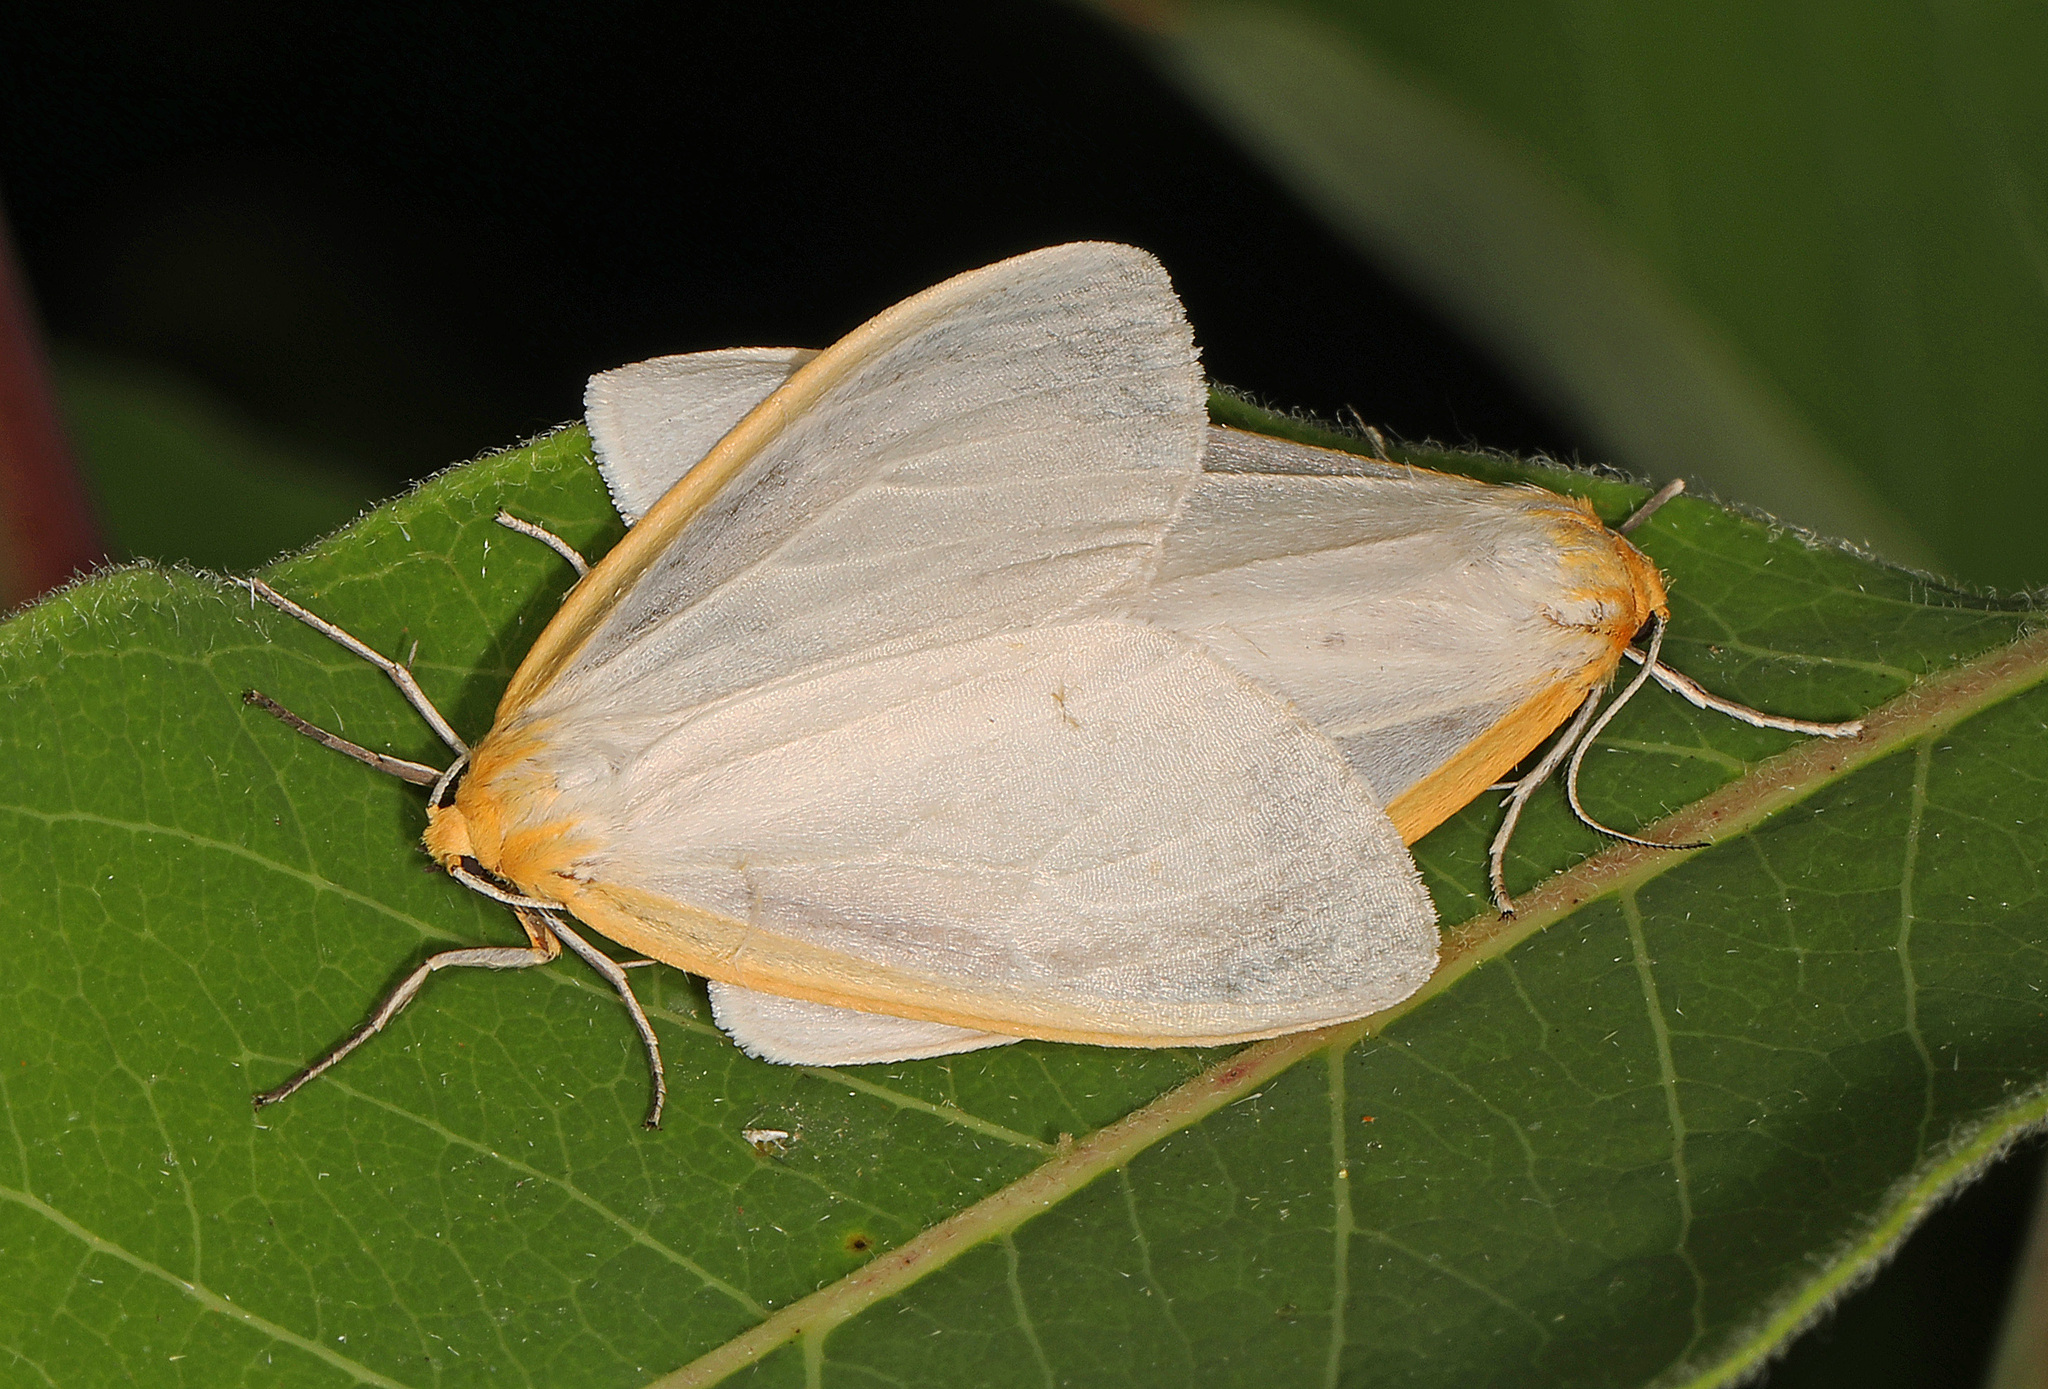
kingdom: Animalia
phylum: Arthropoda
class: Insecta
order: Lepidoptera
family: Erebidae
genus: Cycnia
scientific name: Cycnia tenera
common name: Delicate cycnia moth
